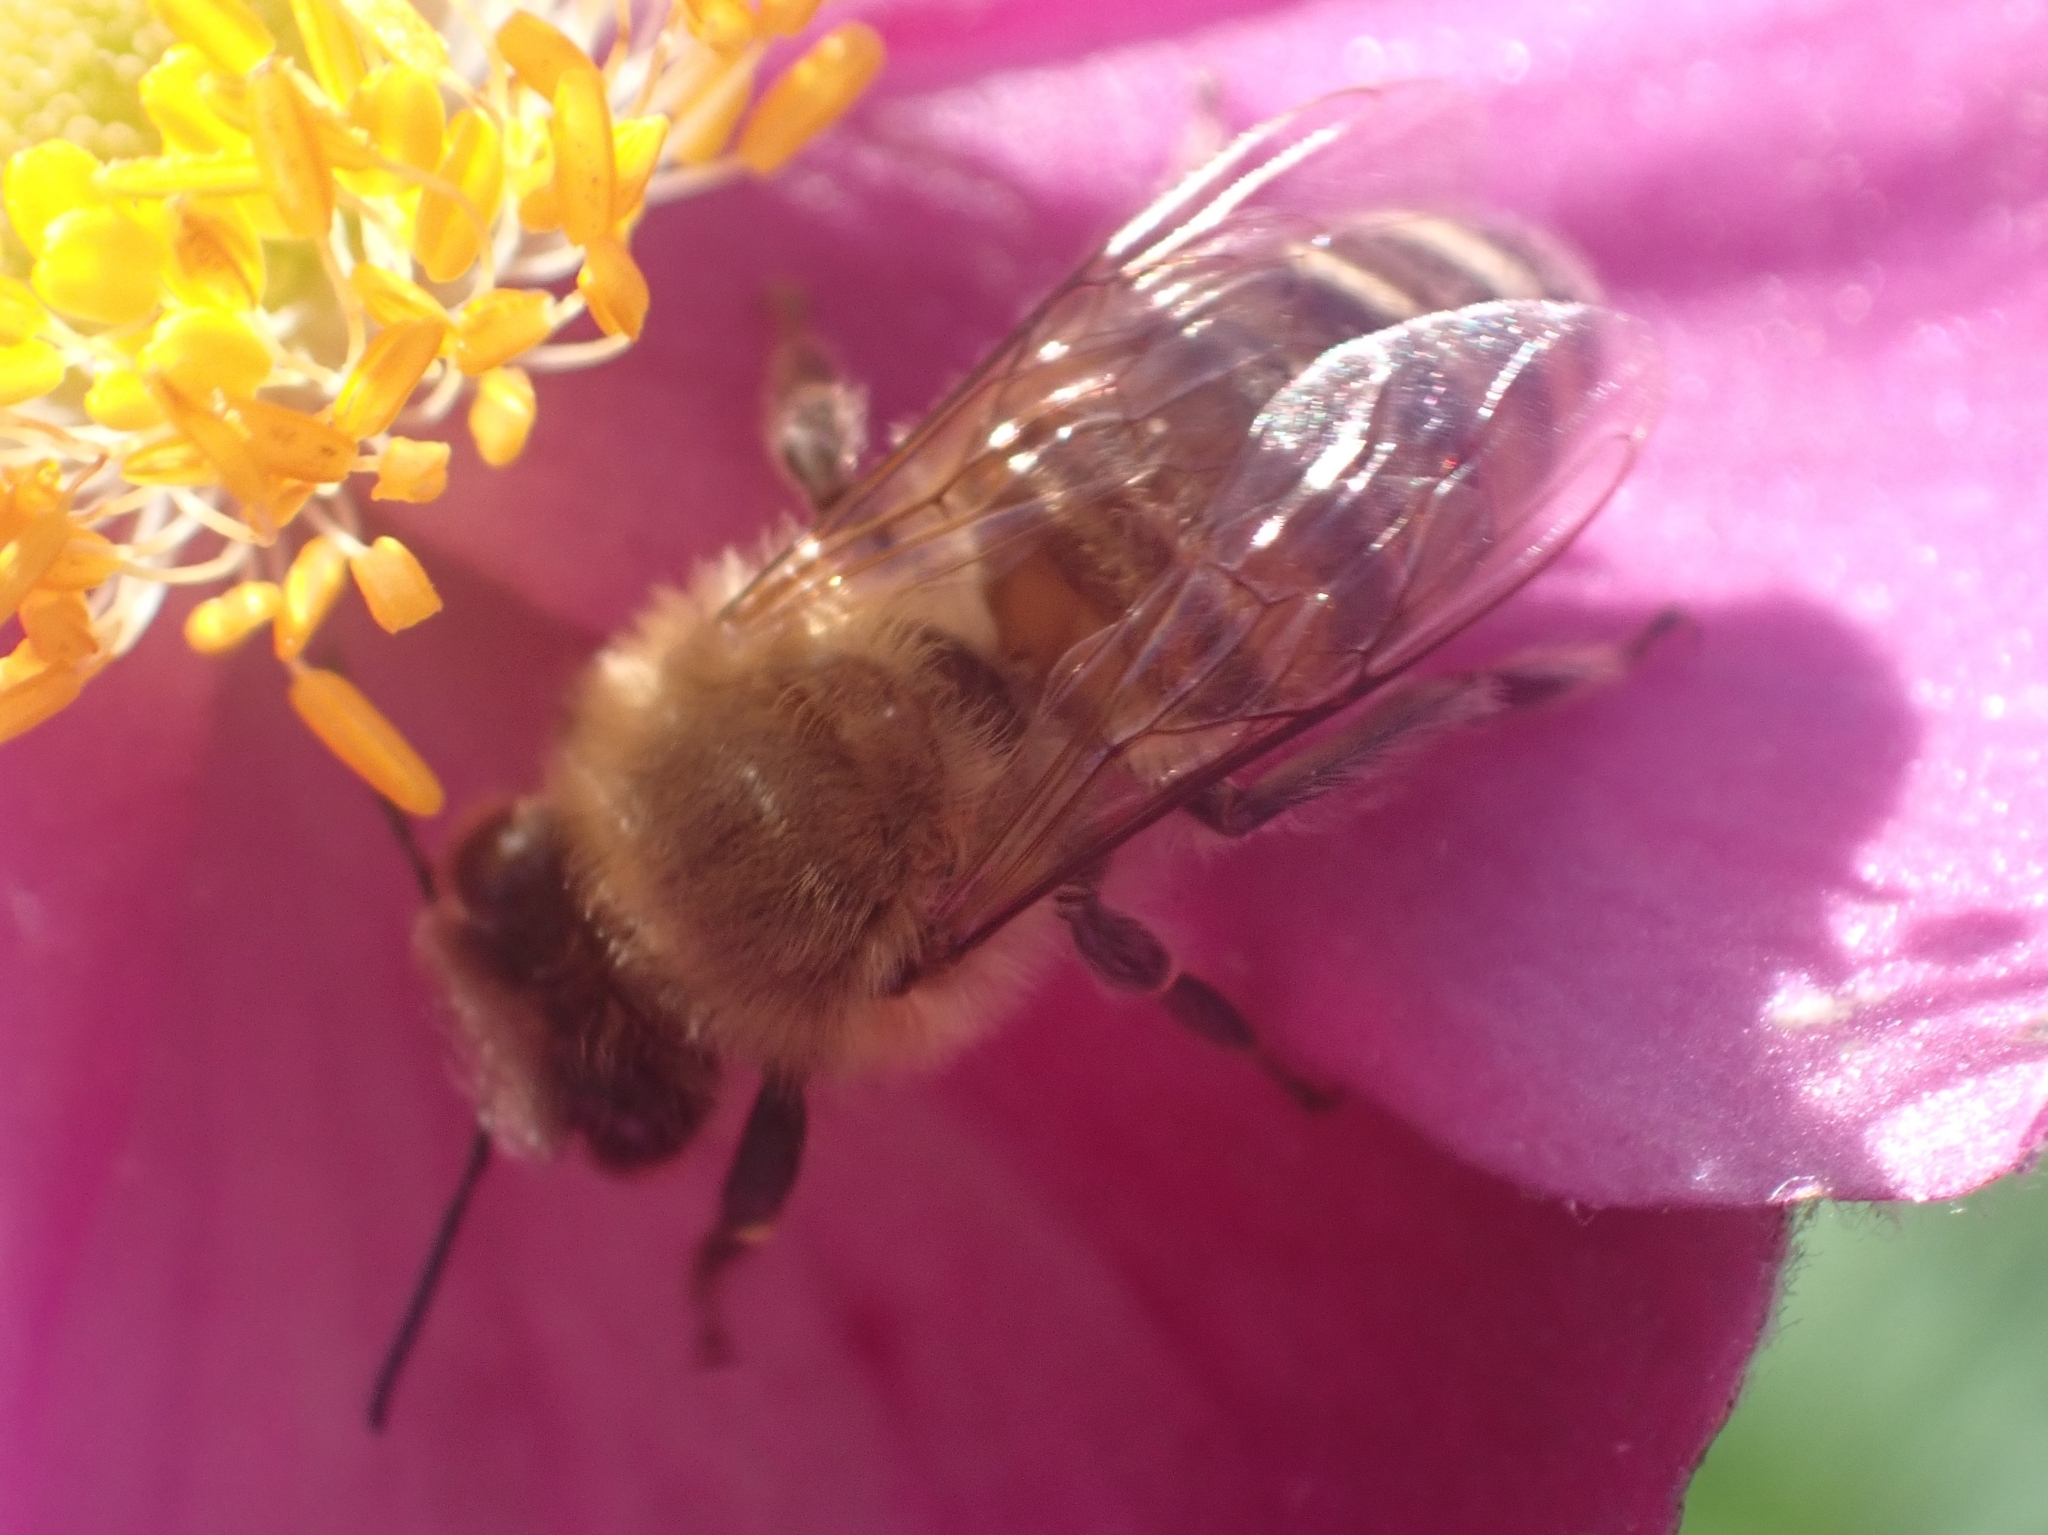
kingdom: Animalia
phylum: Arthropoda
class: Insecta
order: Hymenoptera
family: Apidae
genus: Apis
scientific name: Apis mellifera
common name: Honey bee
